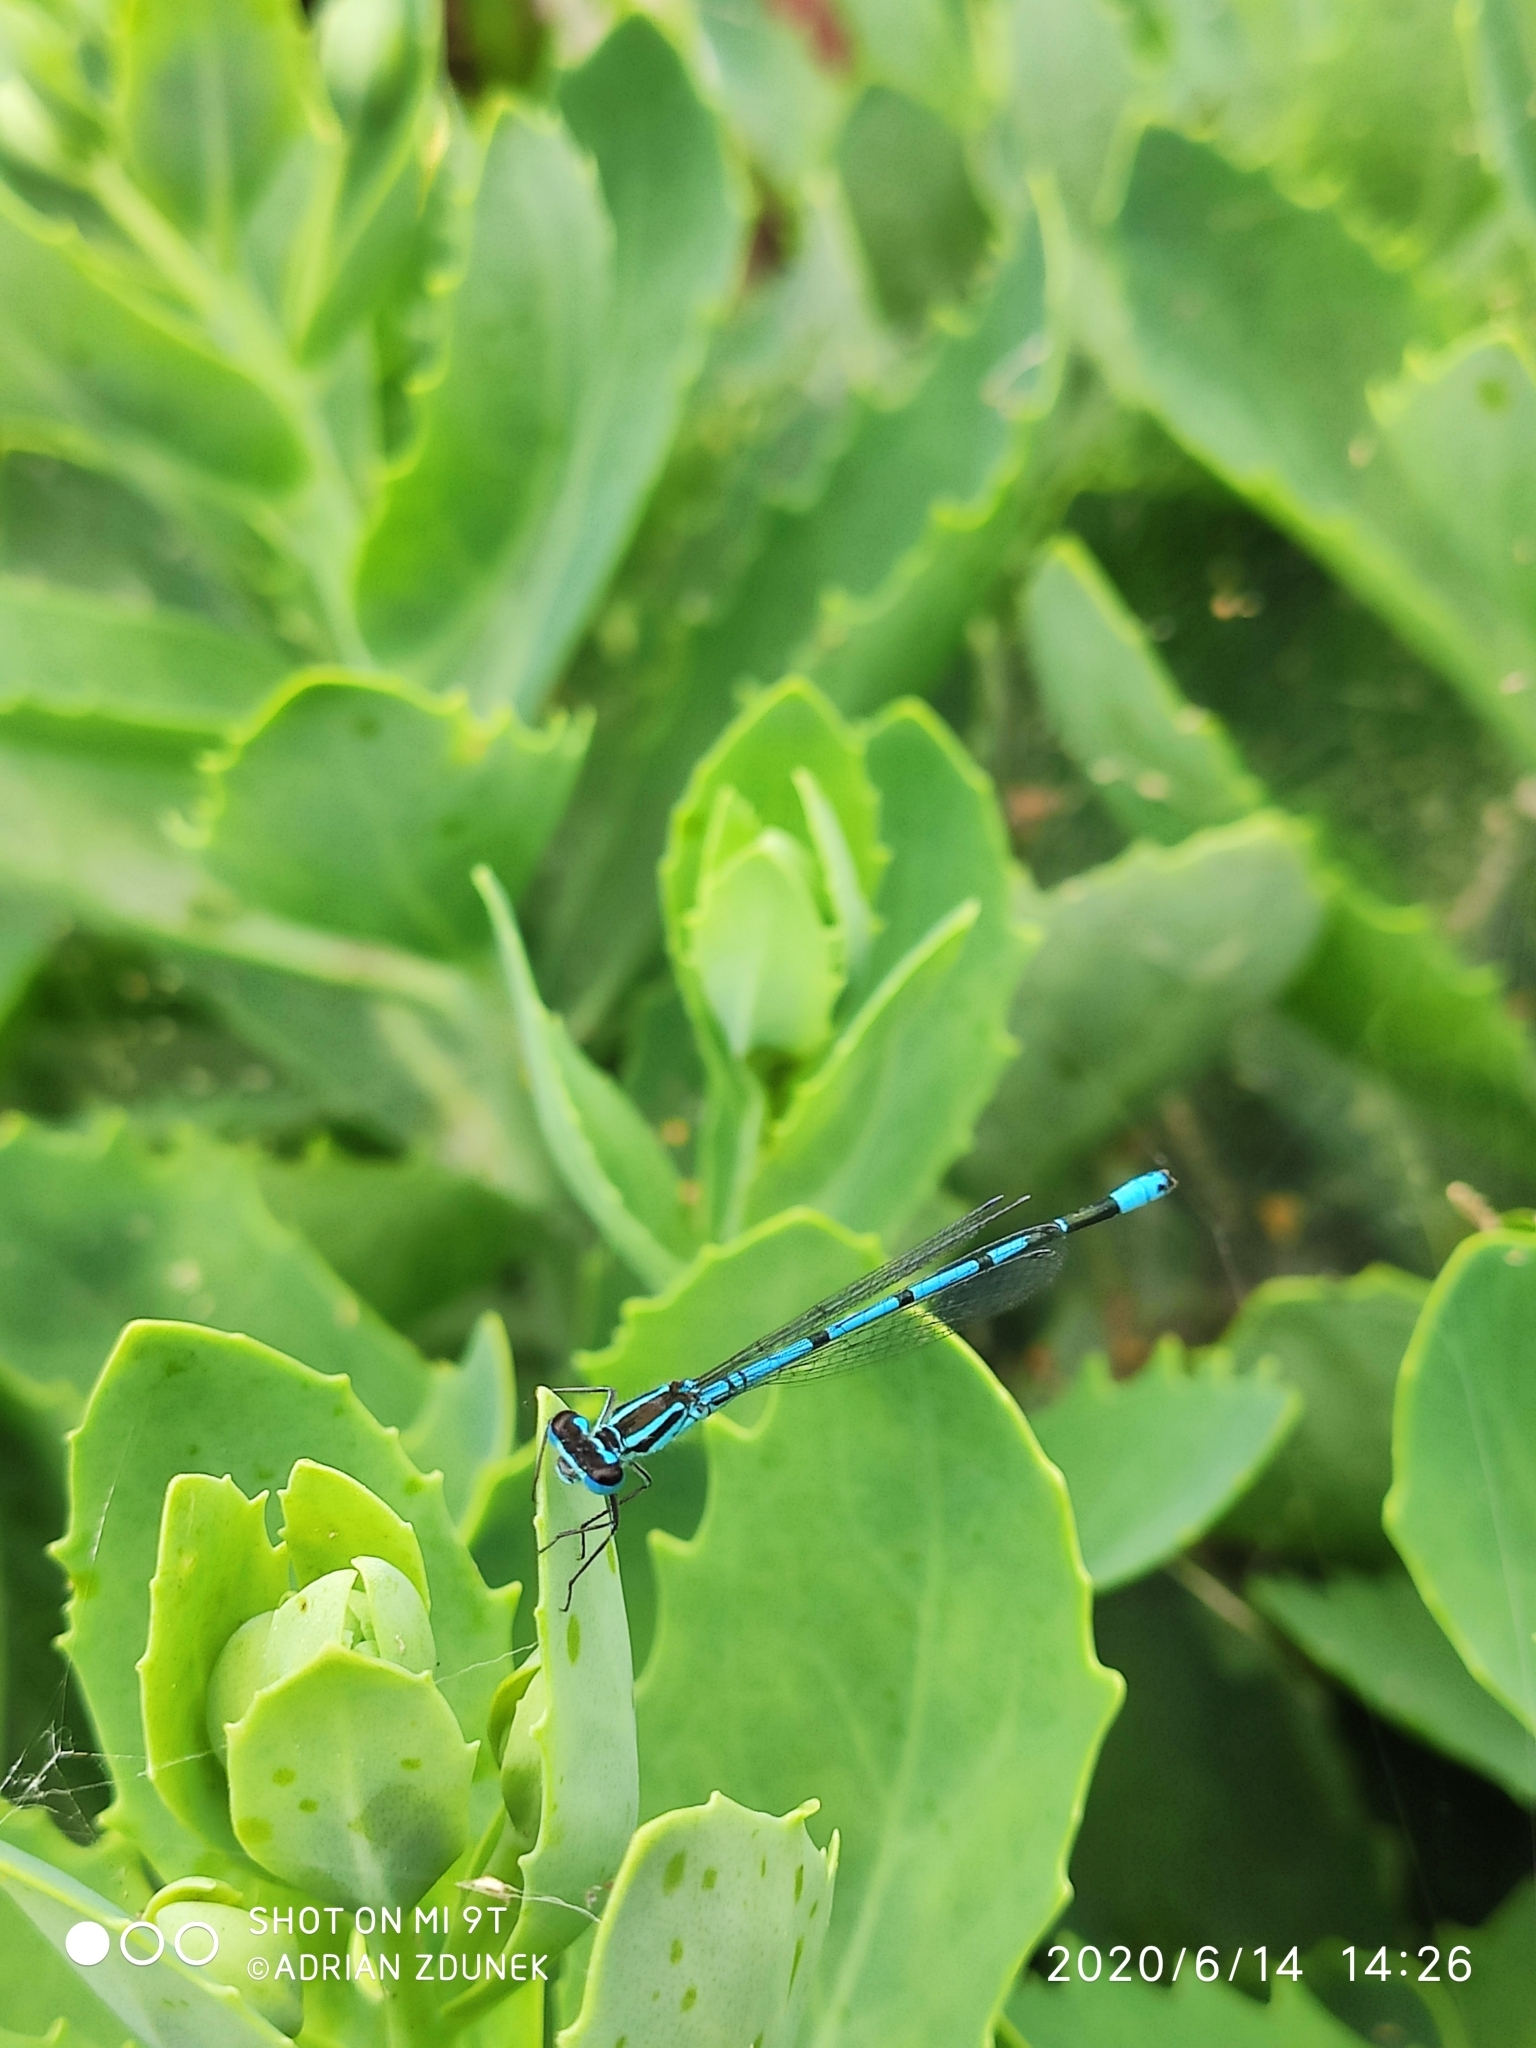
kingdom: Animalia
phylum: Arthropoda
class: Insecta
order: Odonata
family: Coenagrionidae
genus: Coenagrion
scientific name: Coenagrion puella
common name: Azure damselfly
